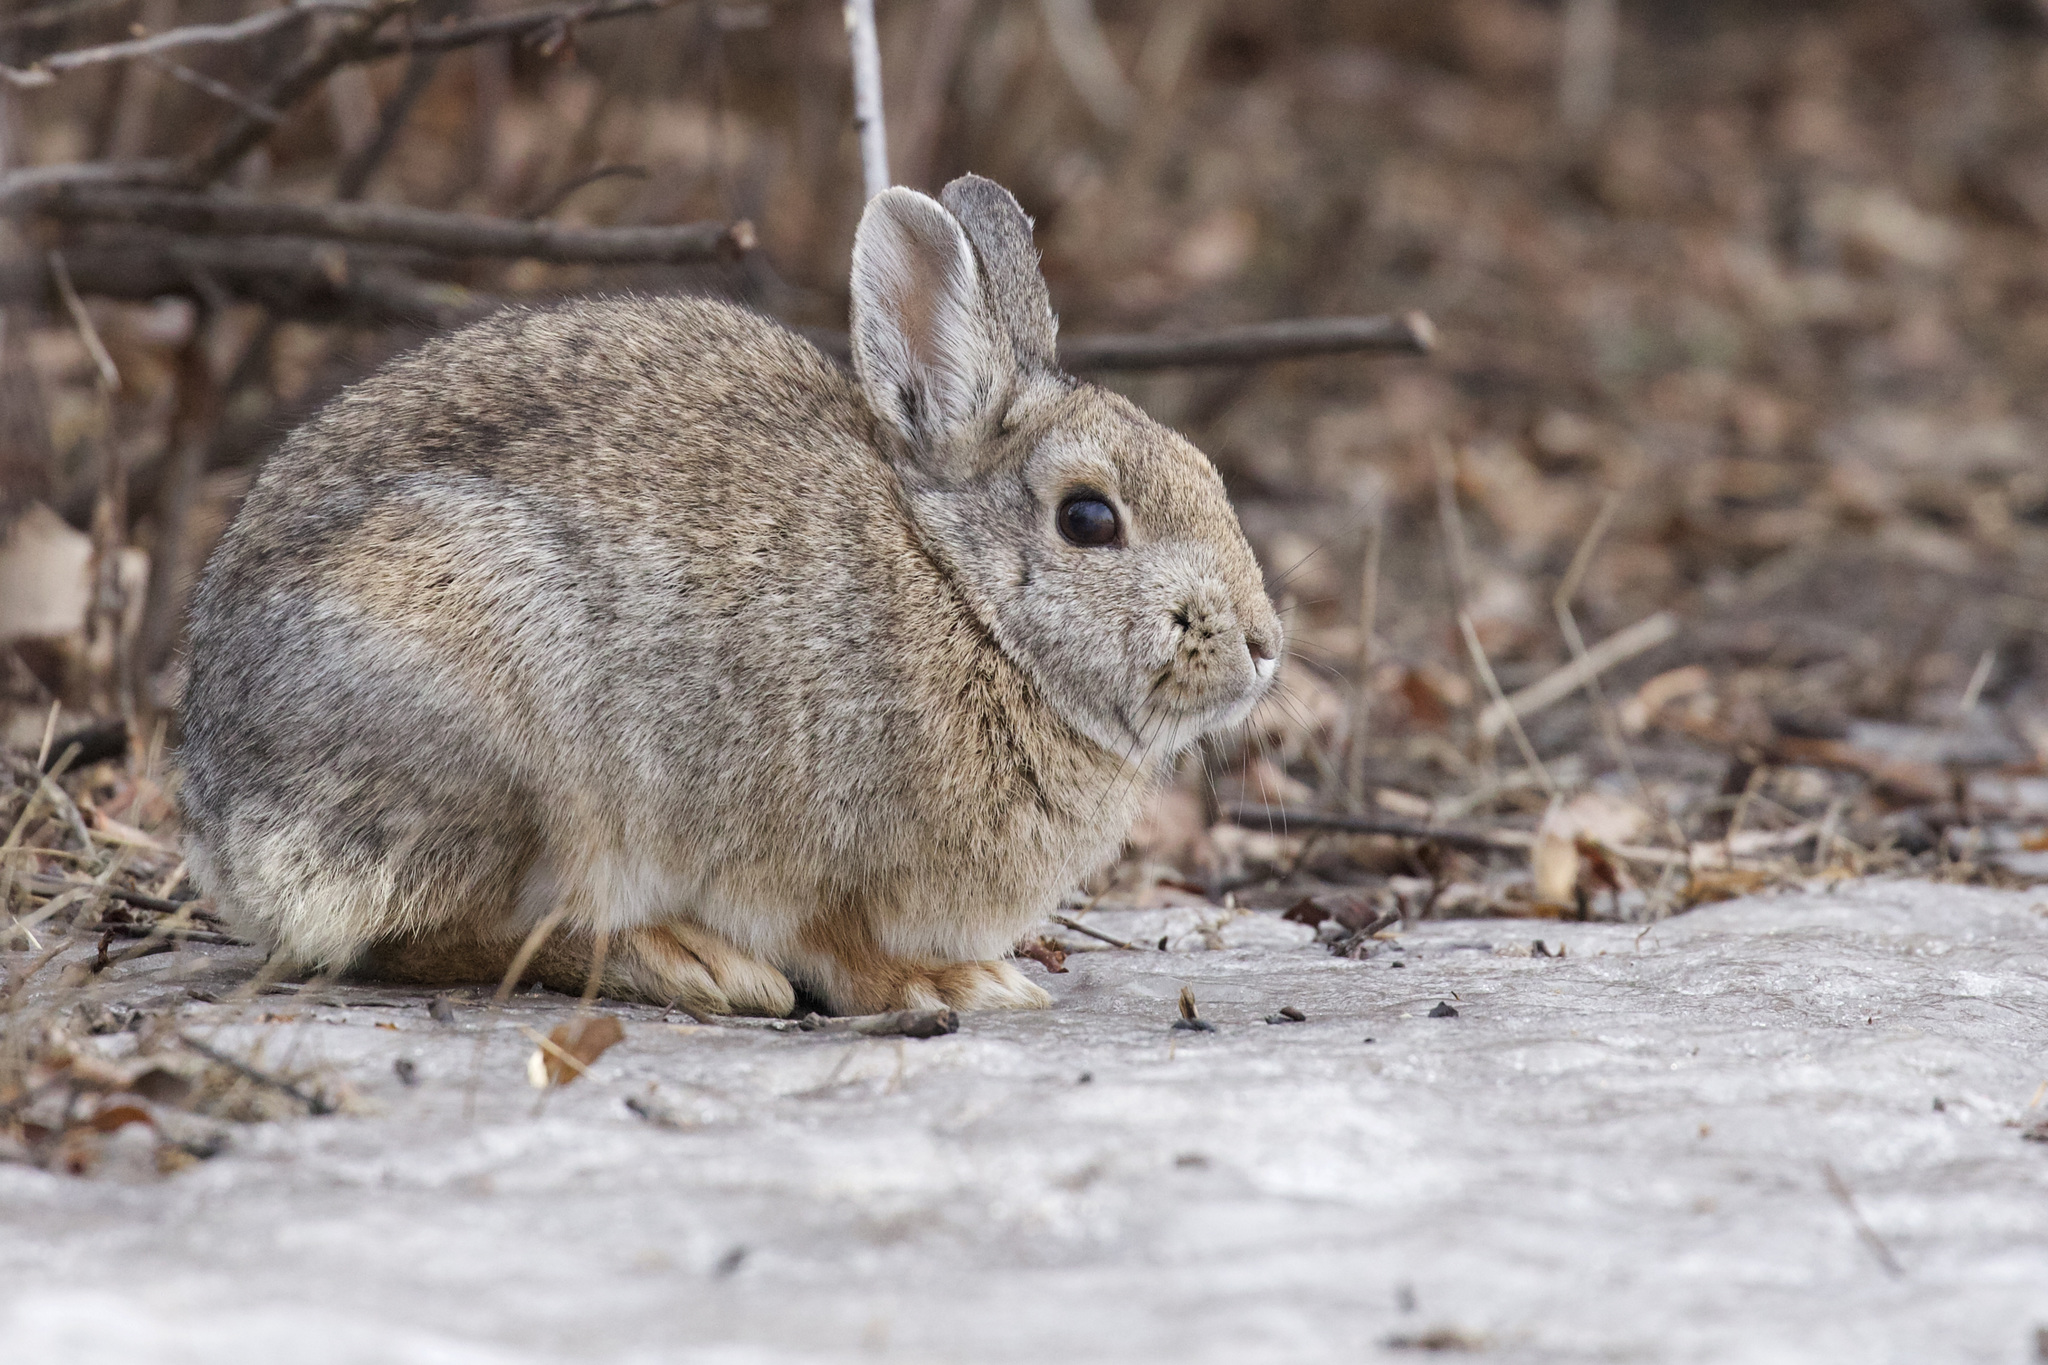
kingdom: Animalia
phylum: Chordata
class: Mammalia
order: Lagomorpha
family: Leporidae
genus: Sylvilagus
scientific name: Sylvilagus nuttallii
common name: Mountain cottontail
